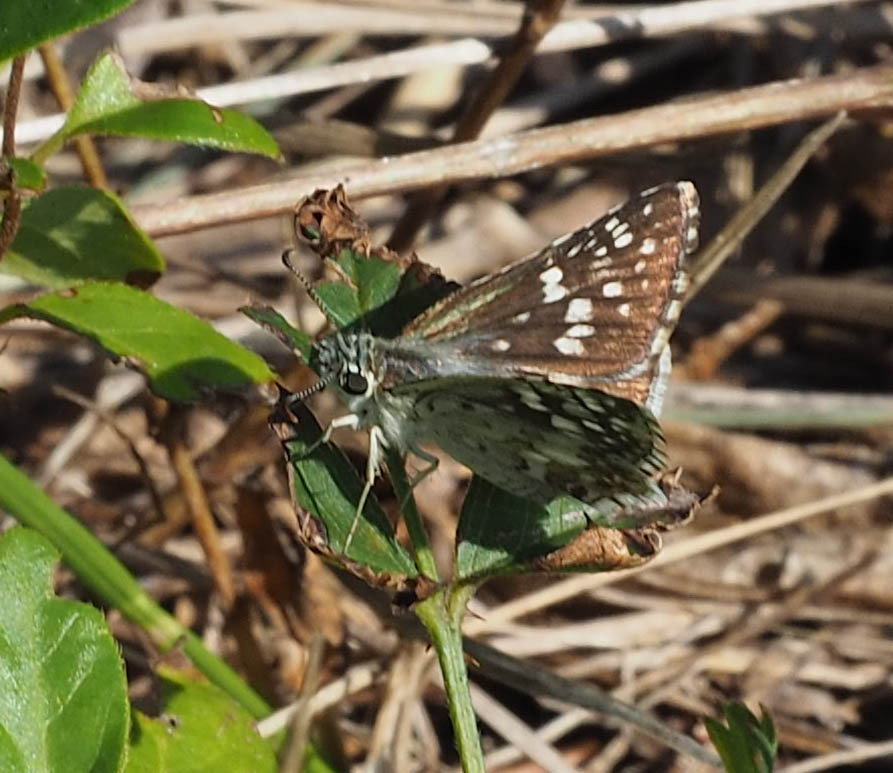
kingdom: Animalia
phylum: Arthropoda
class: Insecta
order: Lepidoptera
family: Hesperiidae
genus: Burnsius
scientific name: Burnsius communis
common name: Common checkered-skipper
